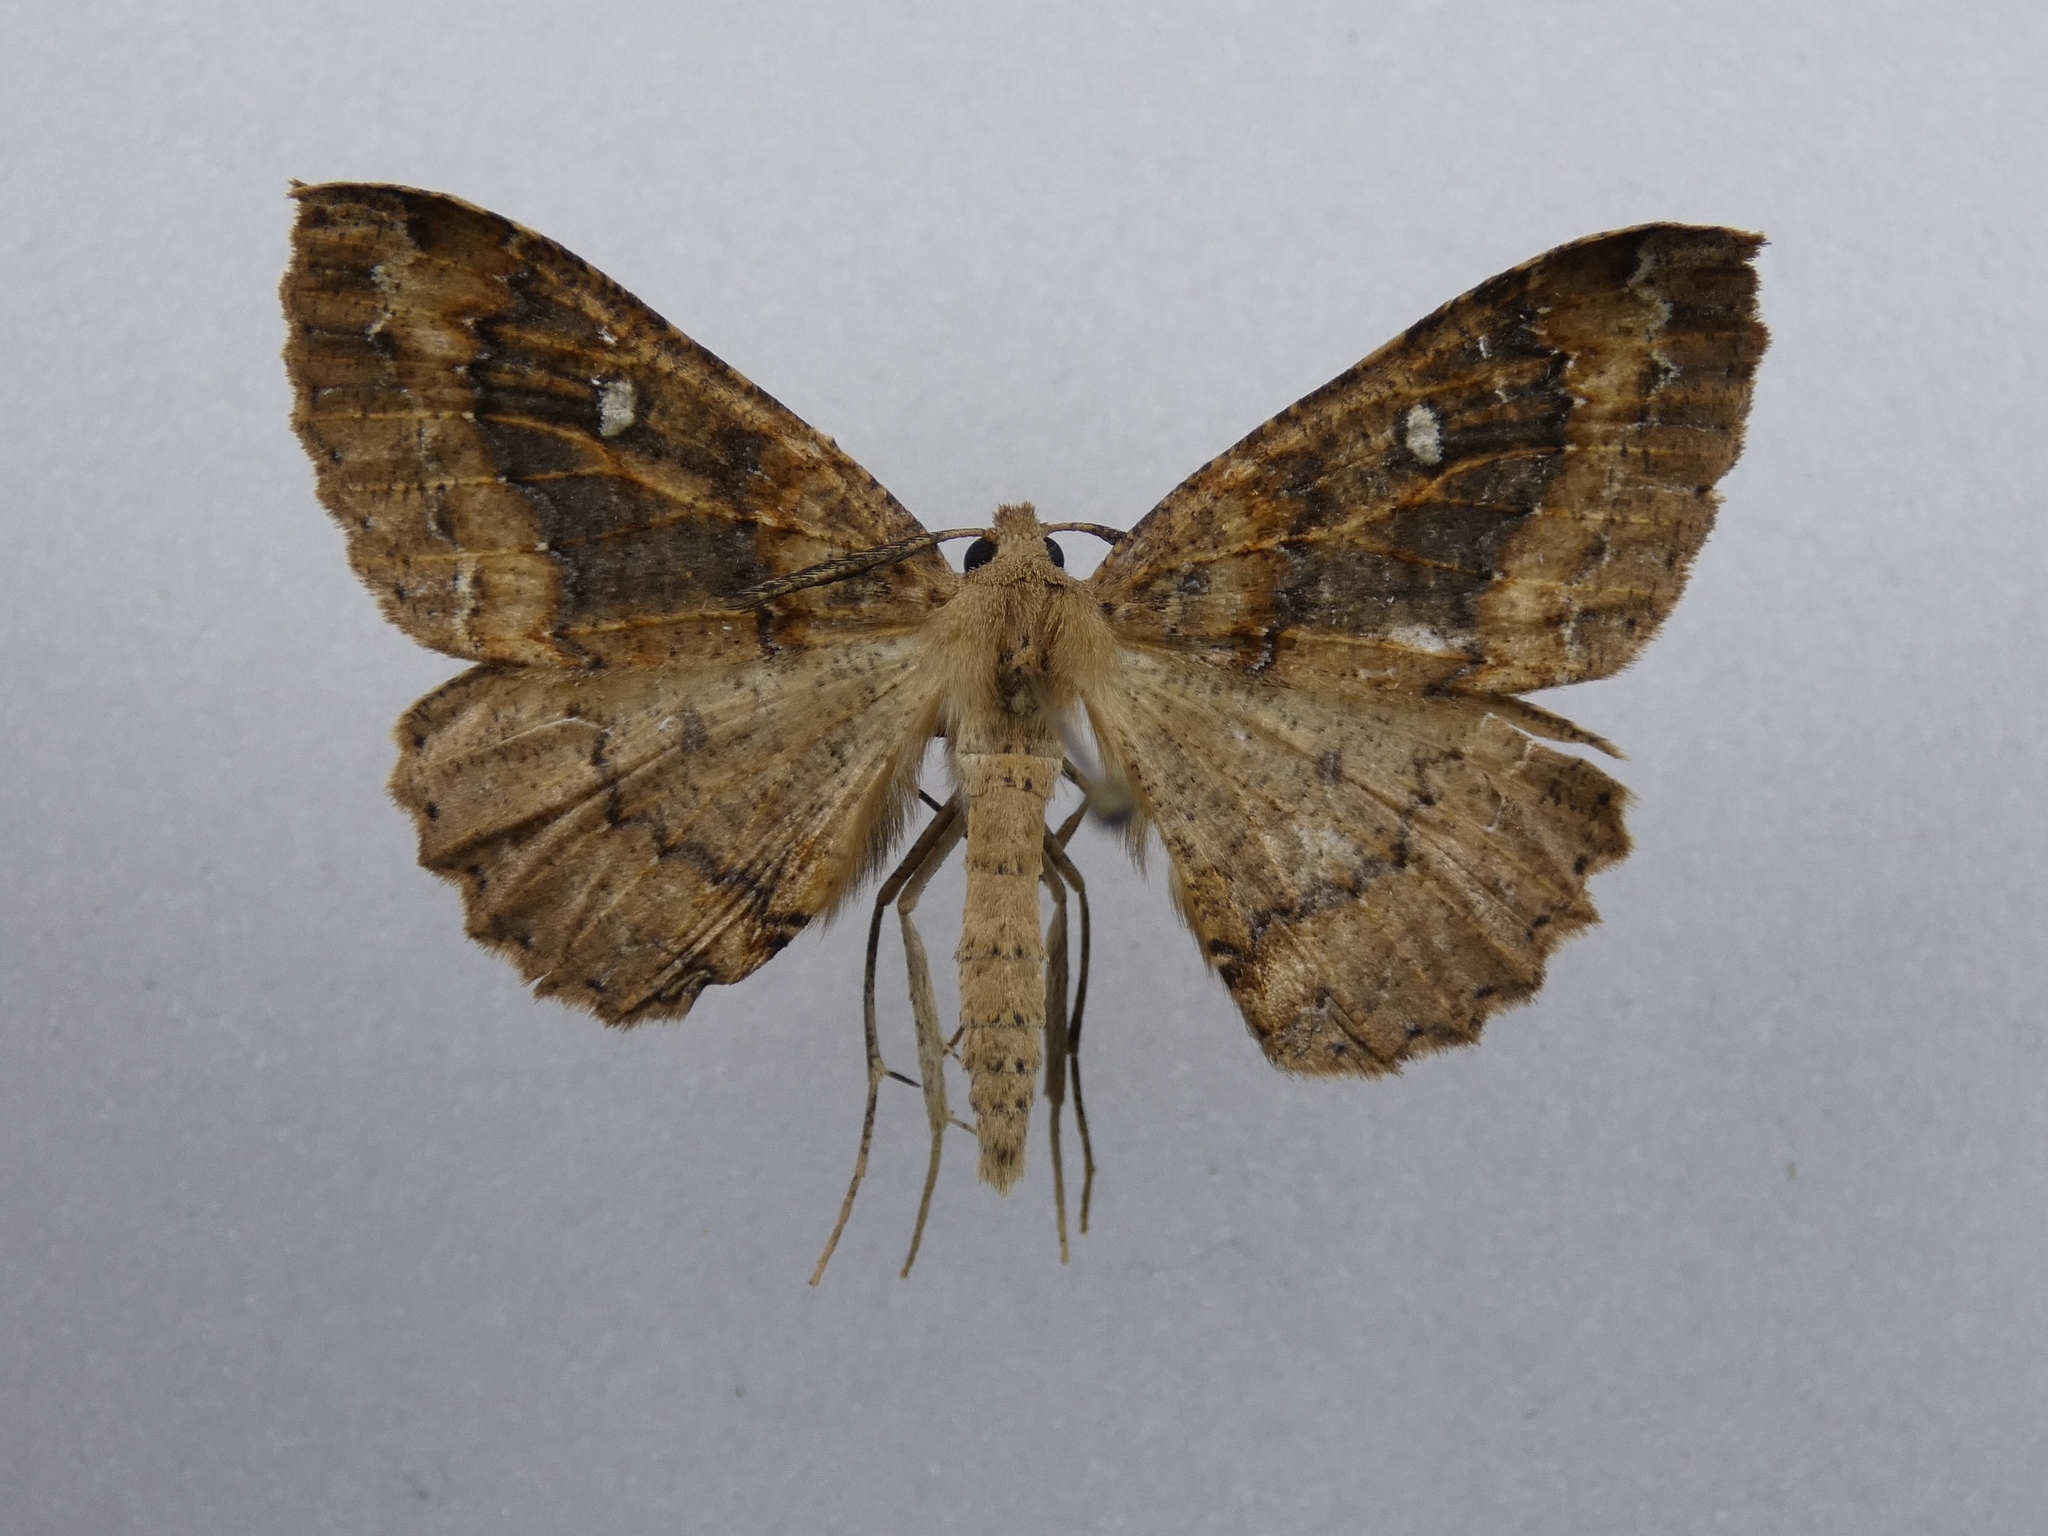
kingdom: Animalia
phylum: Arthropoda
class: Insecta
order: Lepidoptera
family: Geometridae
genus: Cleora
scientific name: Cleora scriptaria
